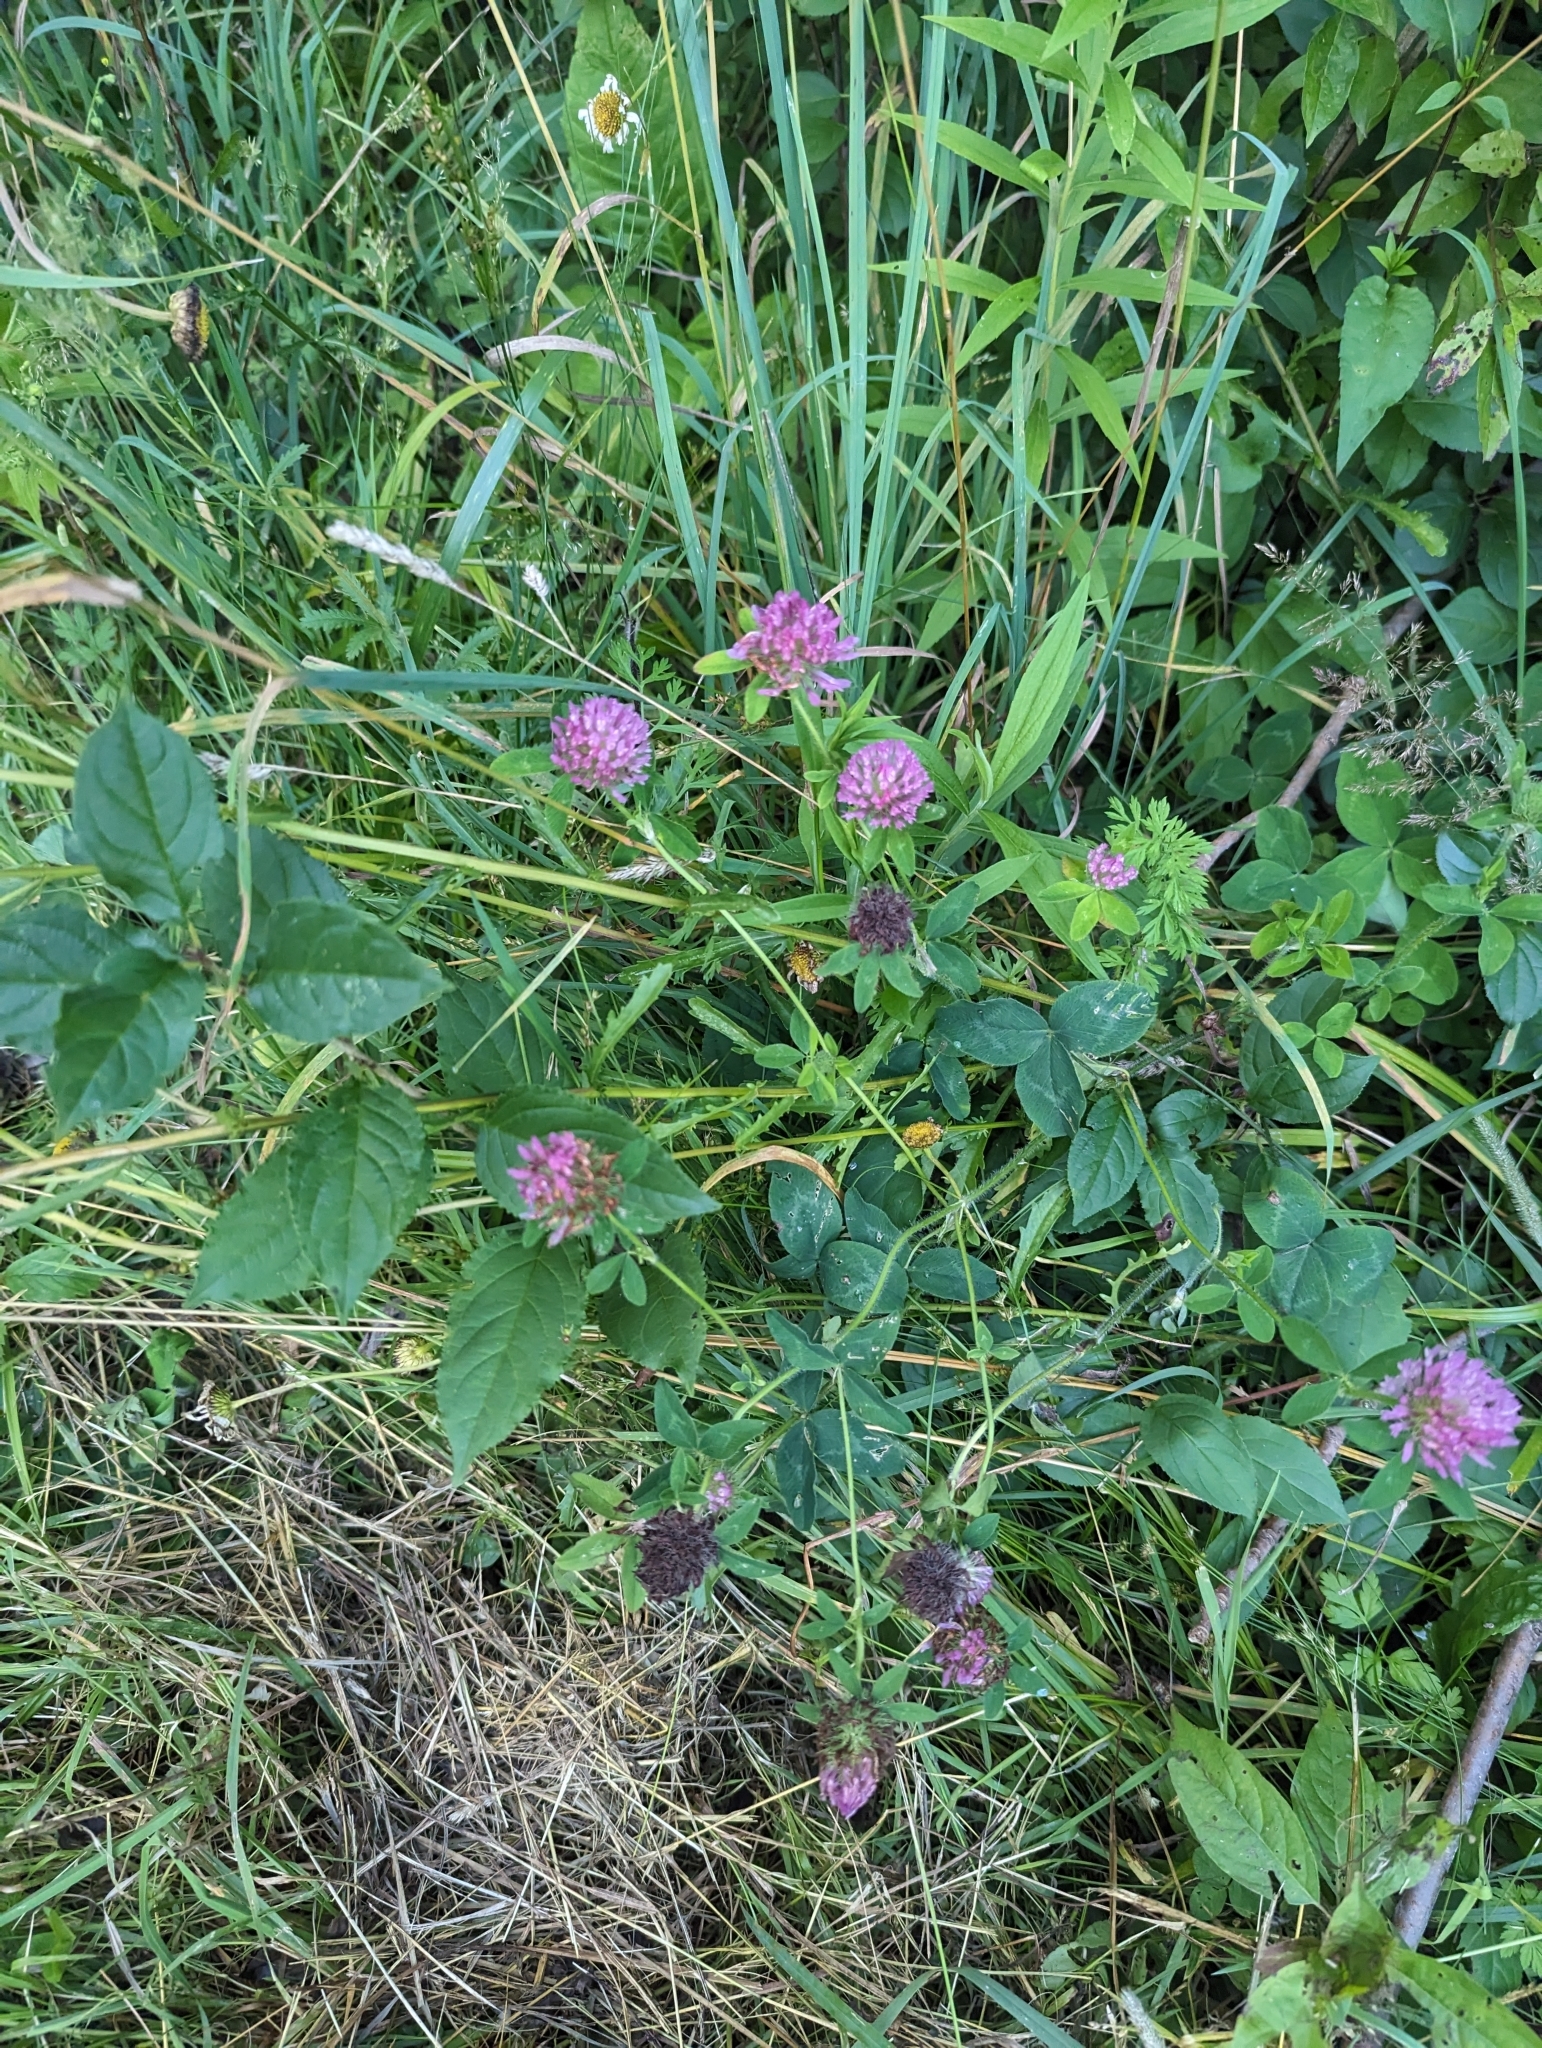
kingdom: Plantae
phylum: Tracheophyta
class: Magnoliopsida
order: Fabales
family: Fabaceae
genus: Trifolium
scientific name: Trifolium pratense
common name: Red clover
